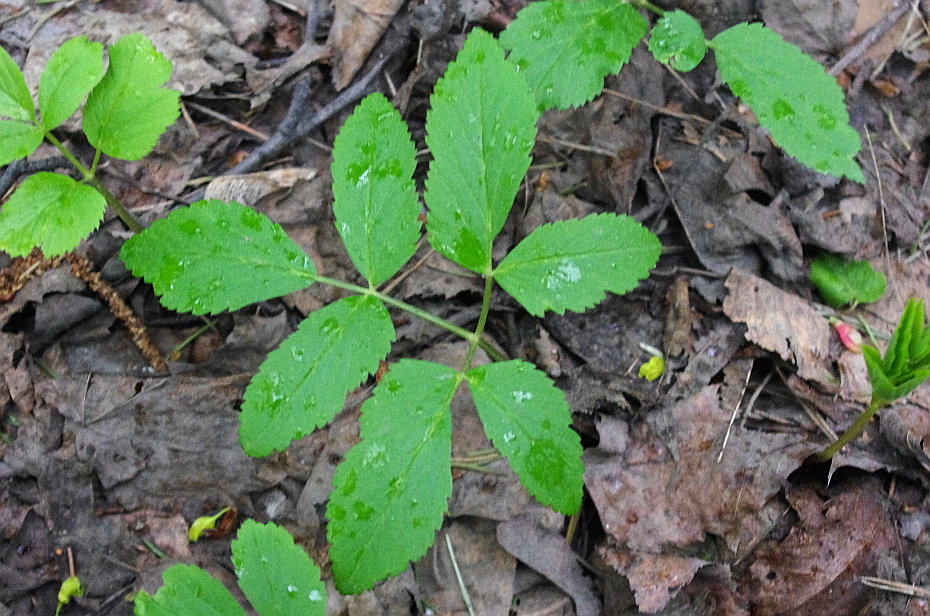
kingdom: Plantae
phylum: Tracheophyta
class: Magnoliopsida
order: Apiales
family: Apiaceae
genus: Aegopodium
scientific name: Aegopodium podagraria
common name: Ground-elder
